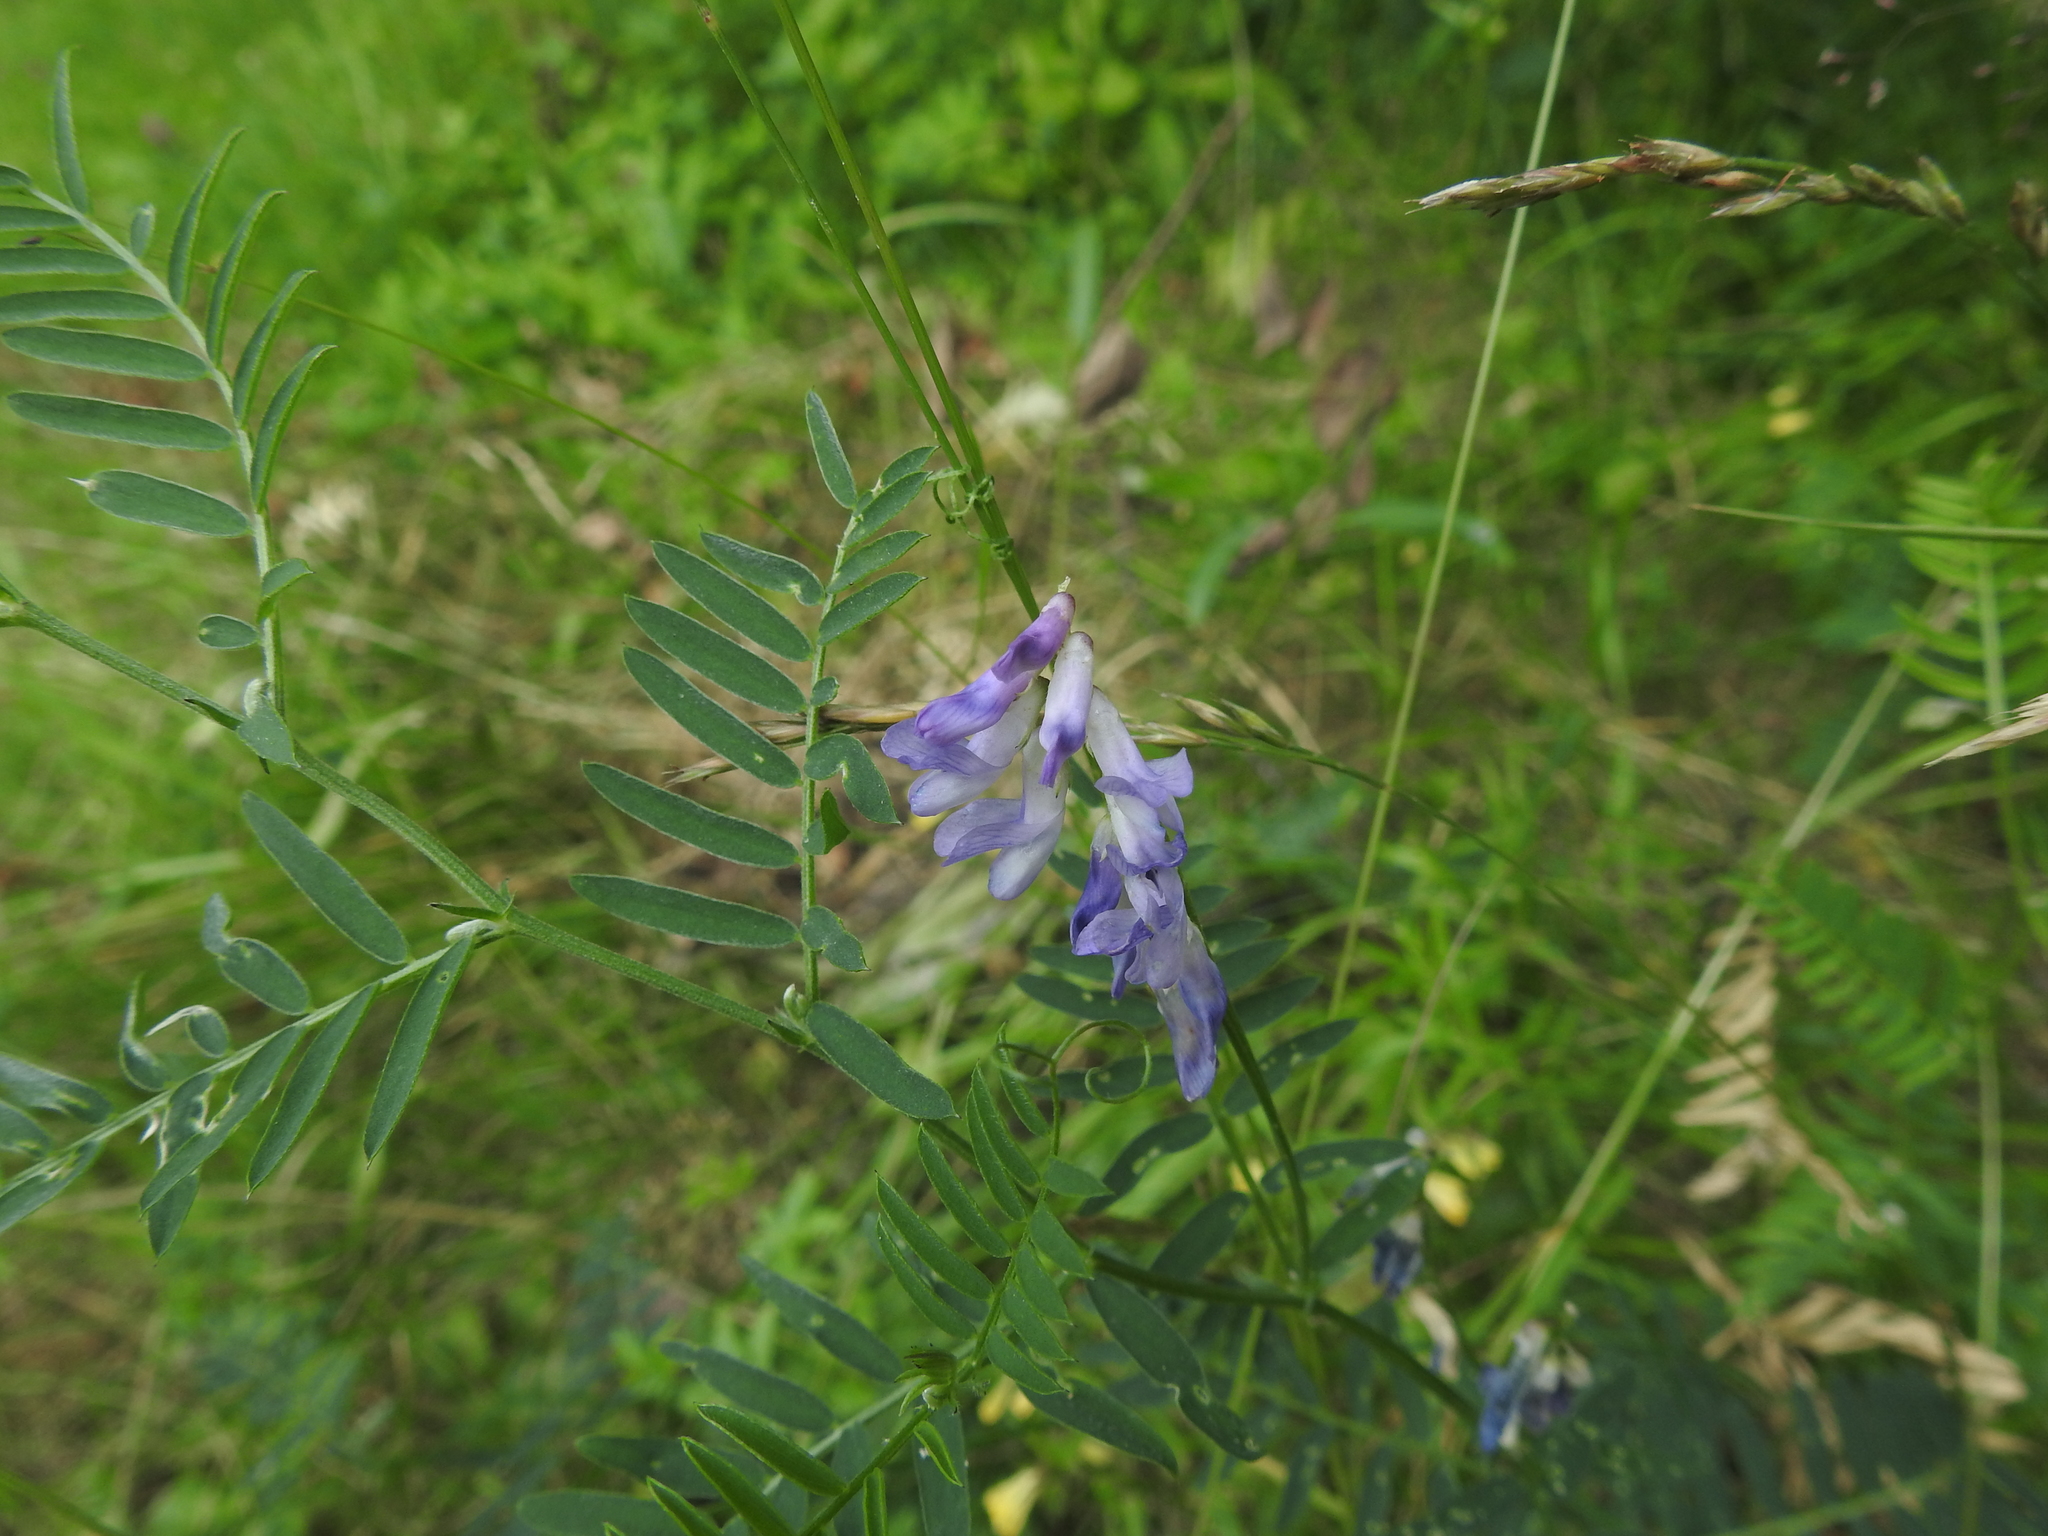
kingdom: Plantae
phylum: Tracheophyta
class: Magnoliopsida
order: Fabales
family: Fabaceae
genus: Vicia
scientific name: Vicia cracca
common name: Bird vetch
